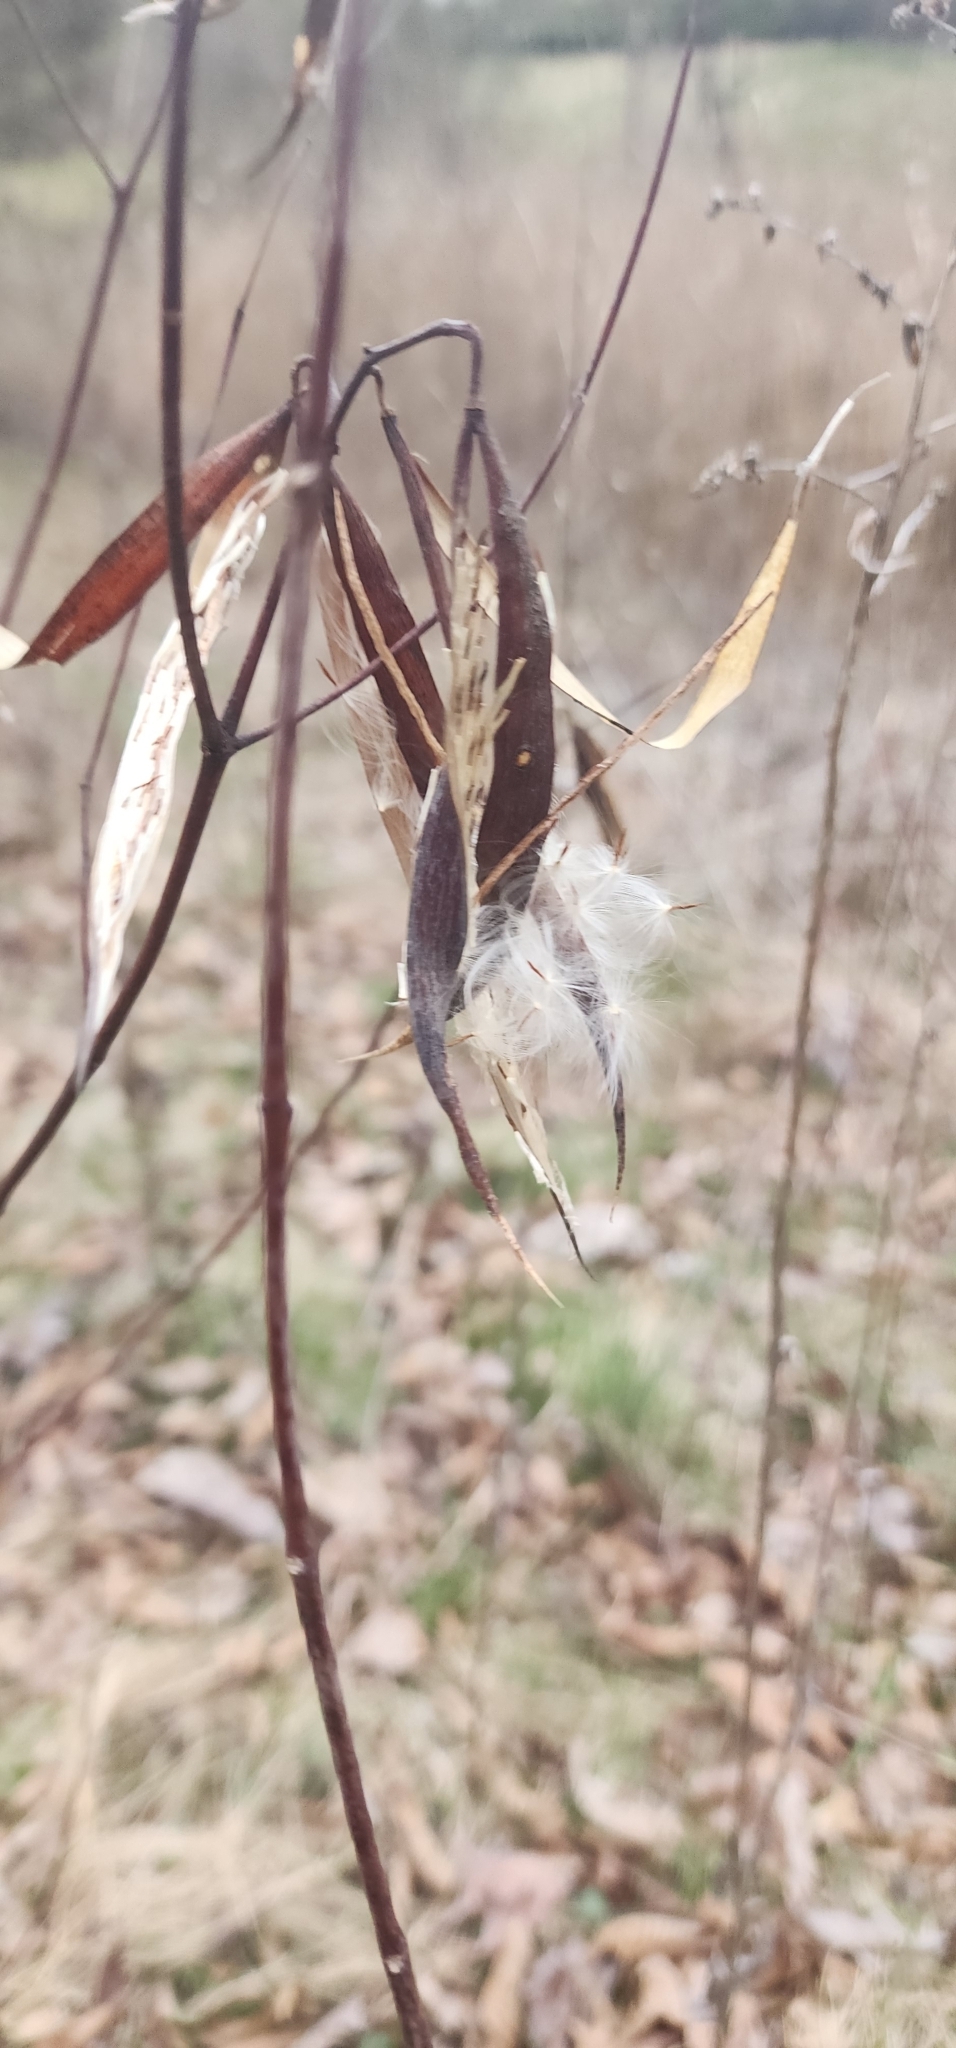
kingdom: Plantae
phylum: Tracheophyta
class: Magnoliopsida
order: Gentianales
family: Apocynaceae
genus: Apocynum
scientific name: Apocynum cannabinum
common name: Hemp dogbane
